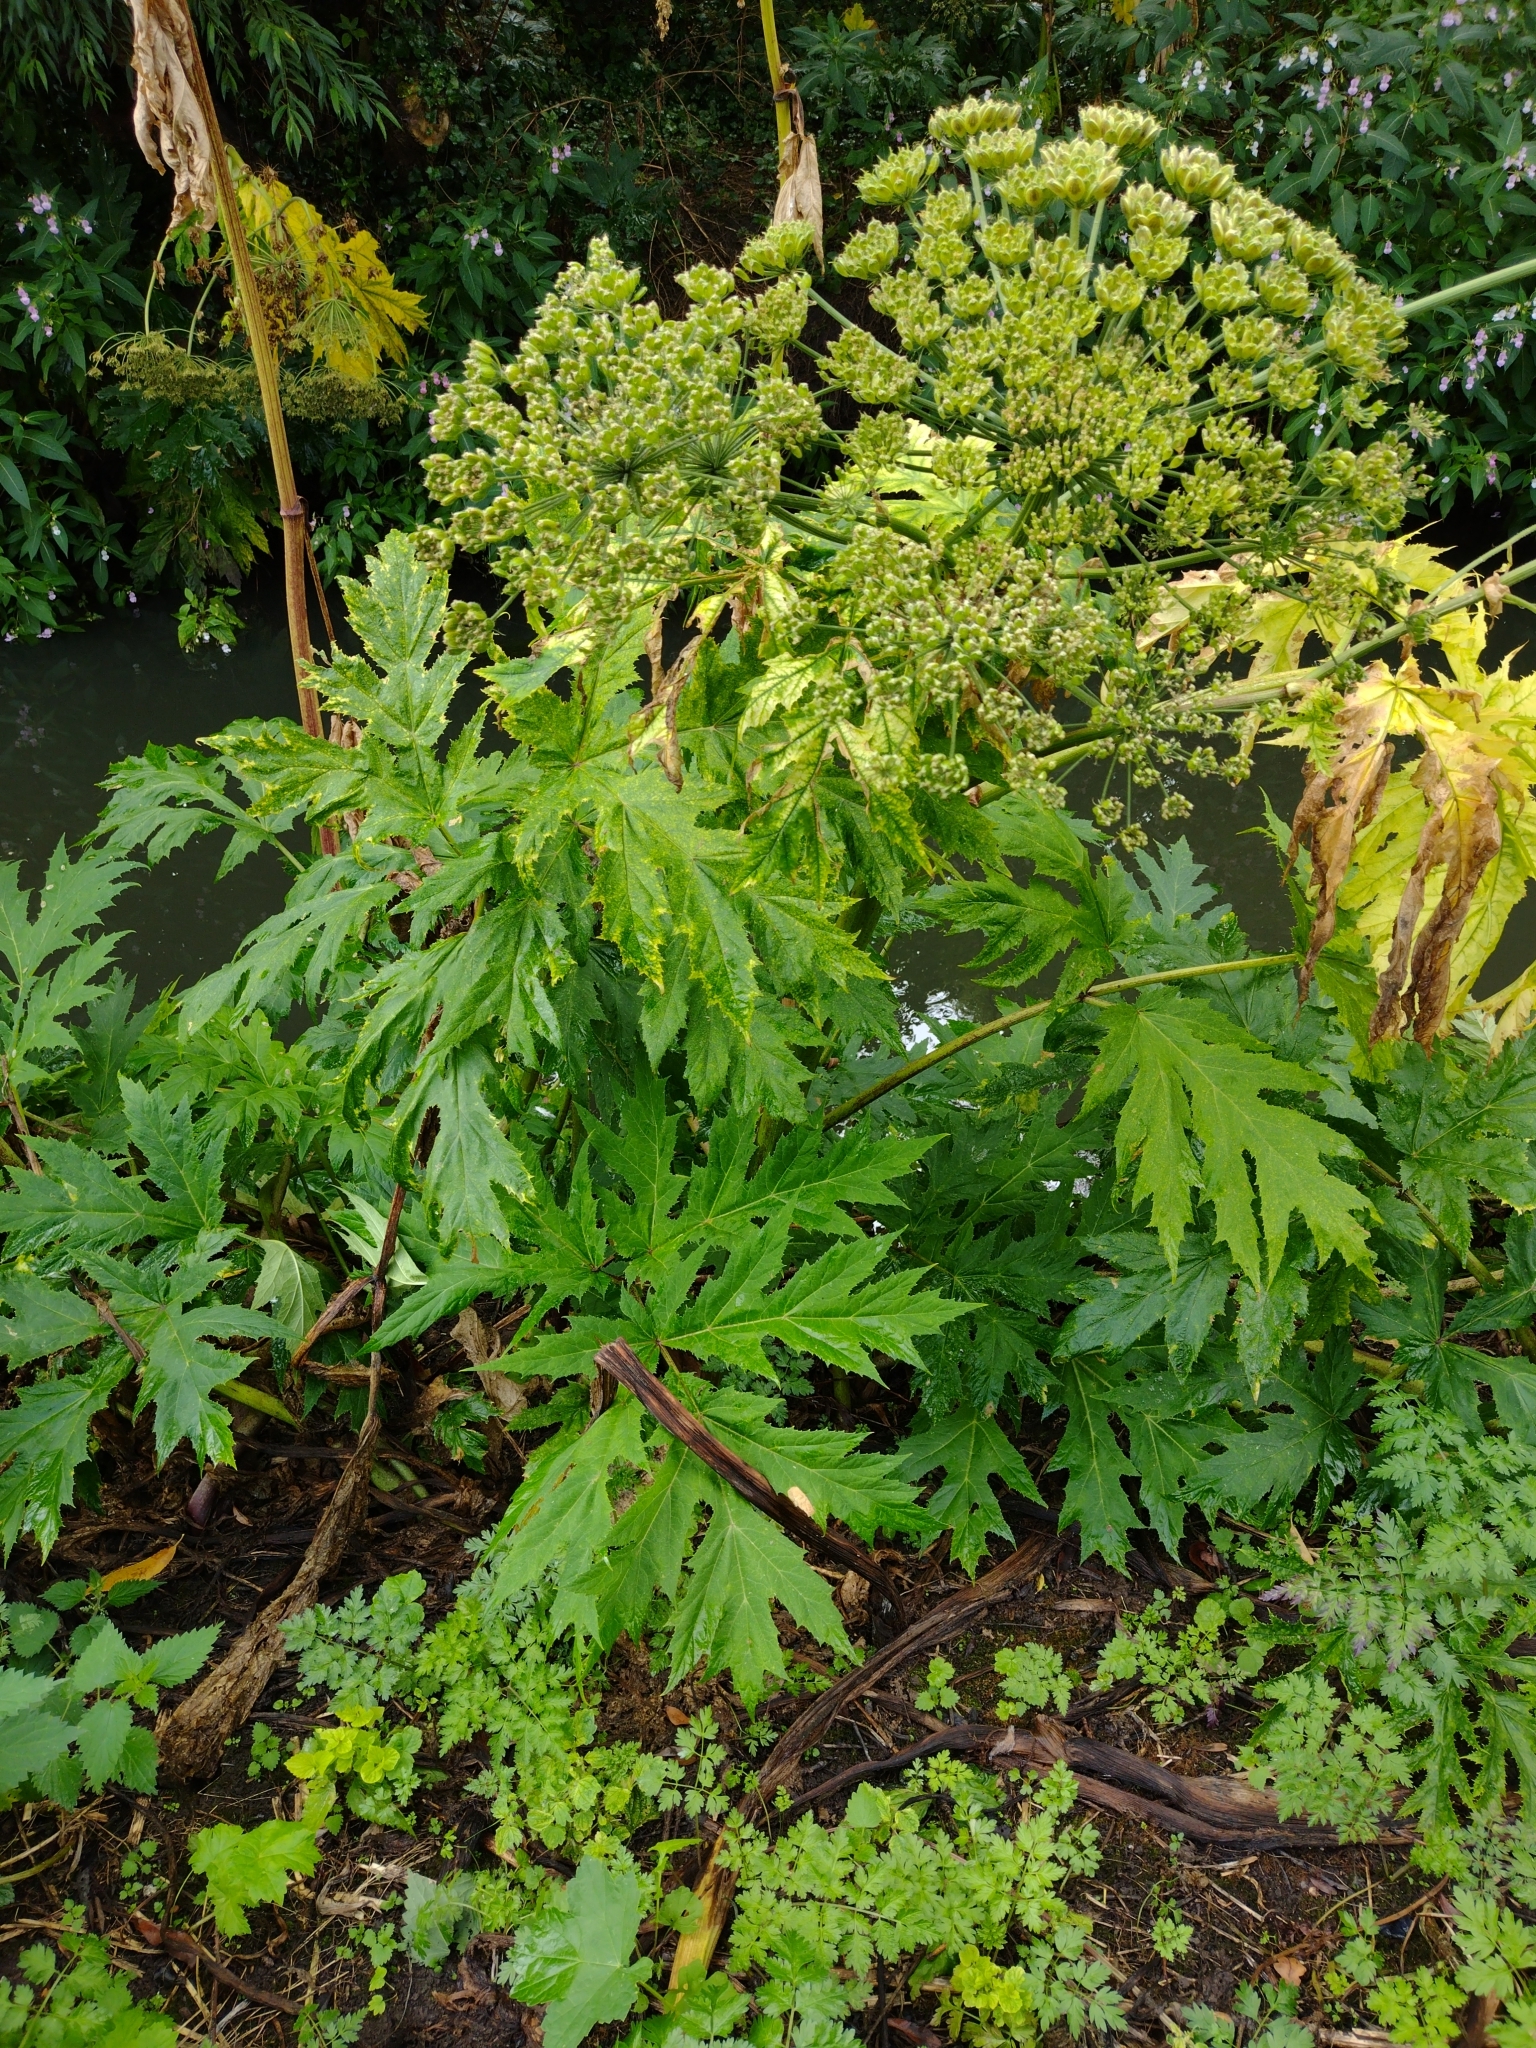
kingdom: Plantae
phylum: Tracheophyta
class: Magnoliopsida
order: Apiales
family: Apiaceae
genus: Heracleum
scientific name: Heracleum mantegazzianum
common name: Giant hogweed
